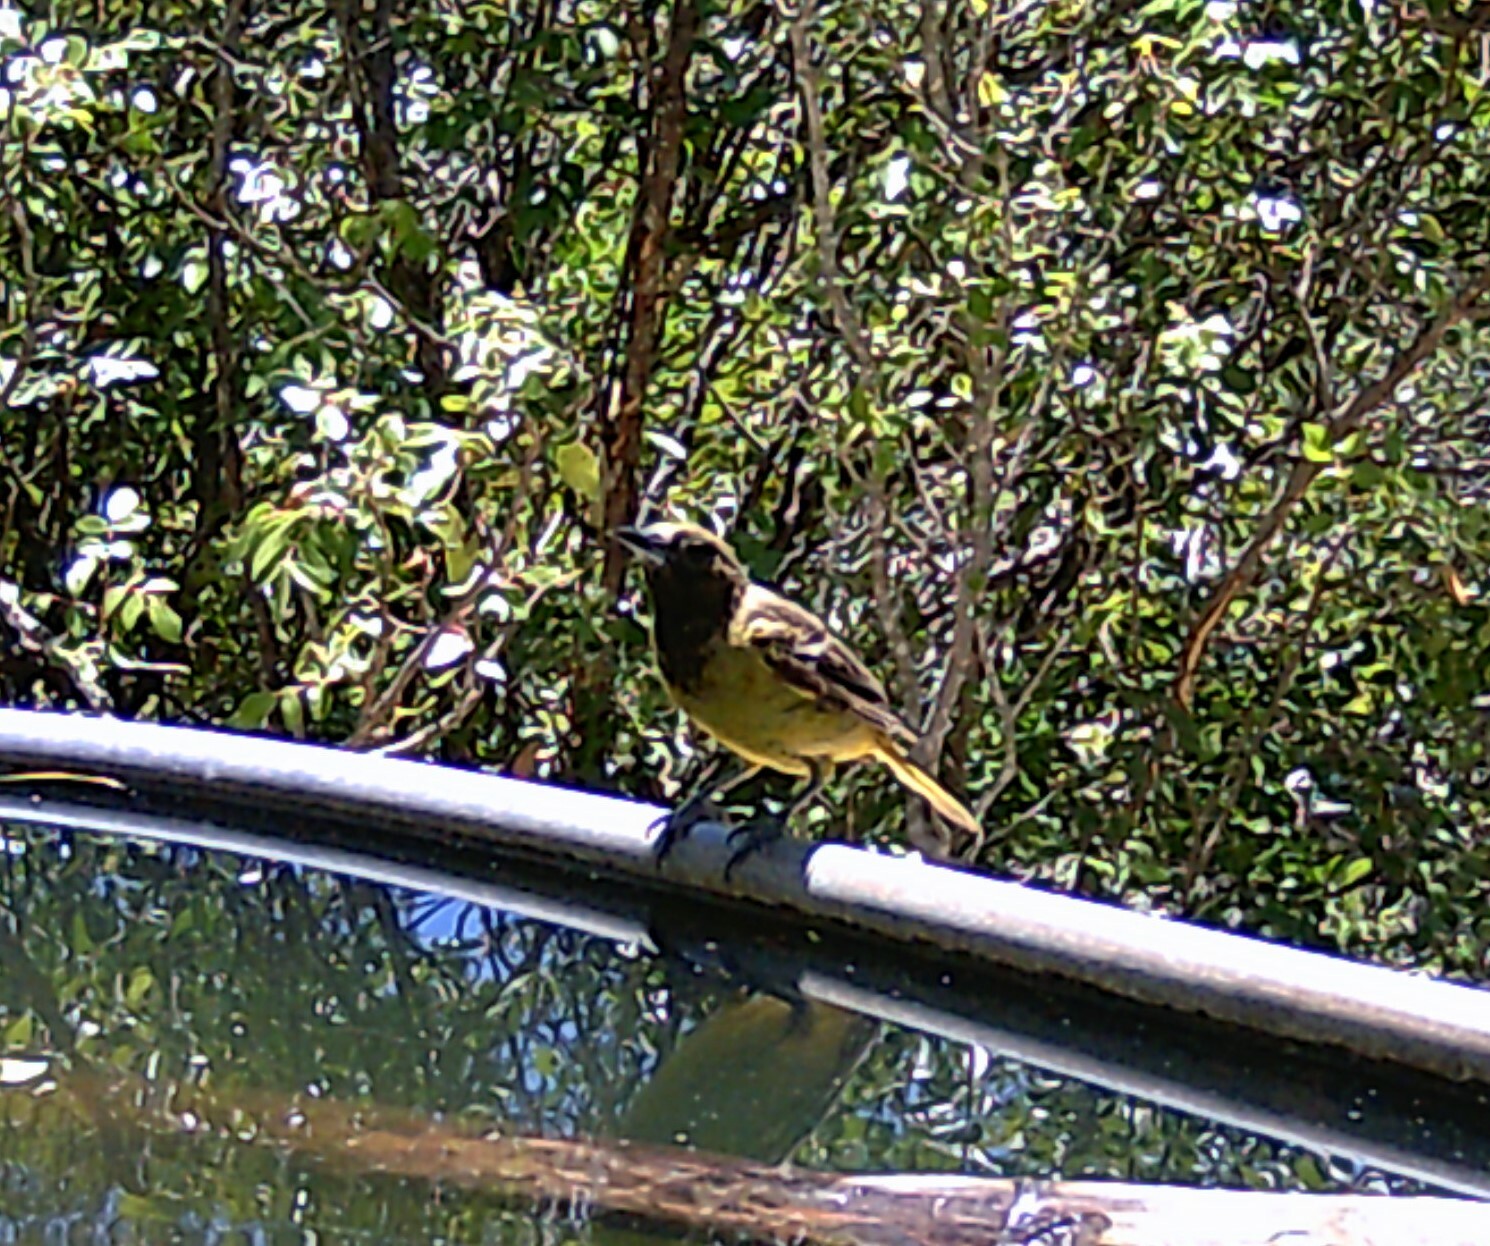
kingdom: Animalia
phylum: Chordata
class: Aves
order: Passeriformes
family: Icteridae
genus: Icterus
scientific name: Icterus parisorum
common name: Scott's oriole
